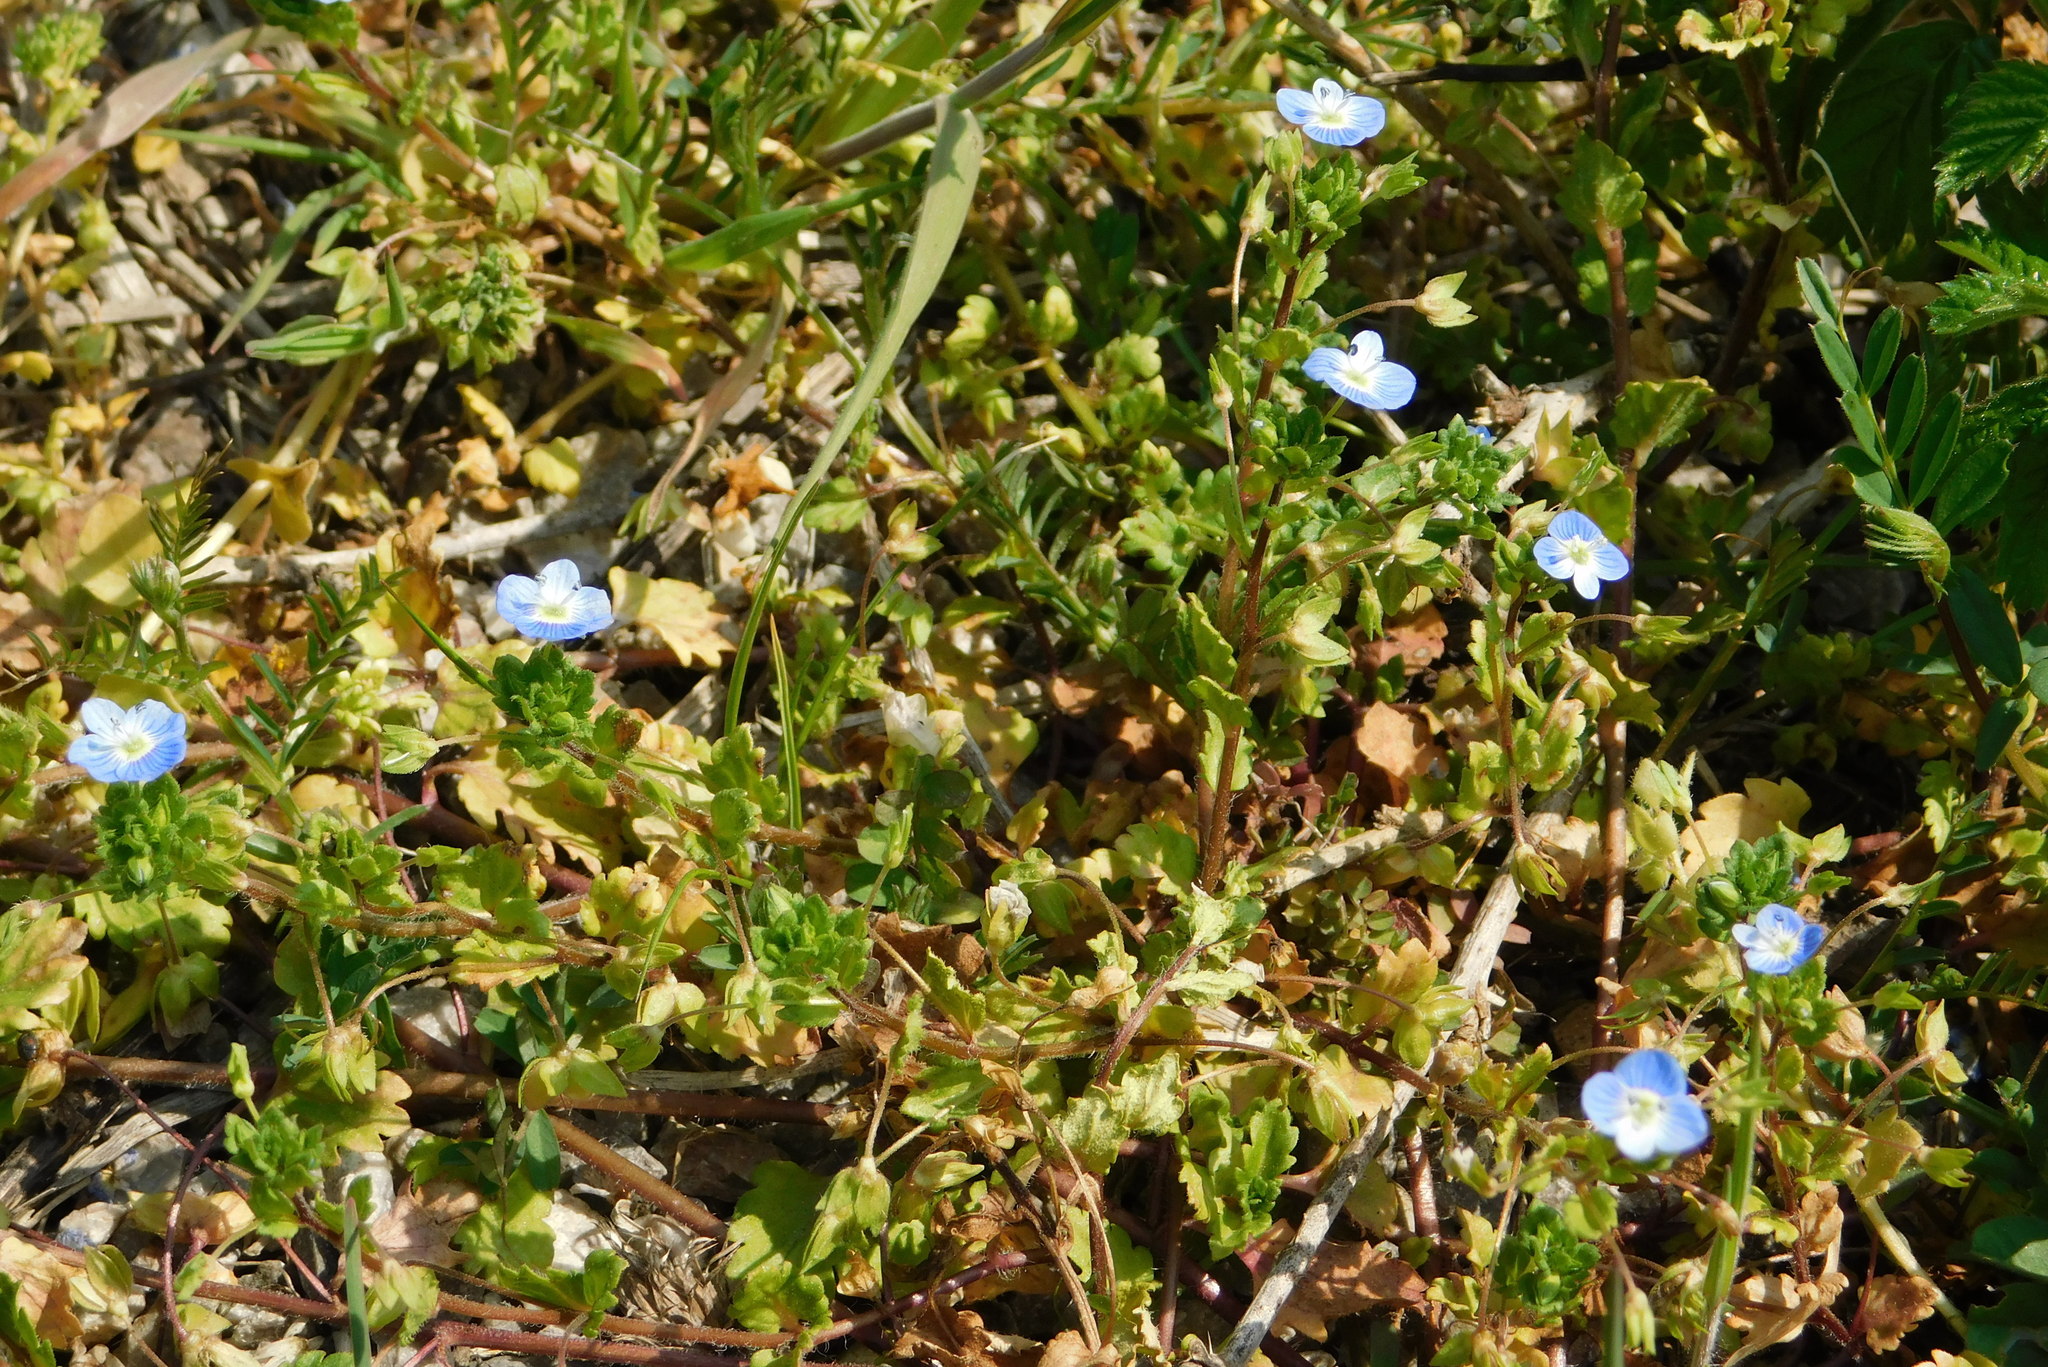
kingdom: Plantae
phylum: Tracheophyta
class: Magnoliopsida
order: Lamiales
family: Plantaginaceae
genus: Veronica
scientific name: Veronica persica
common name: Common field-speedwell
